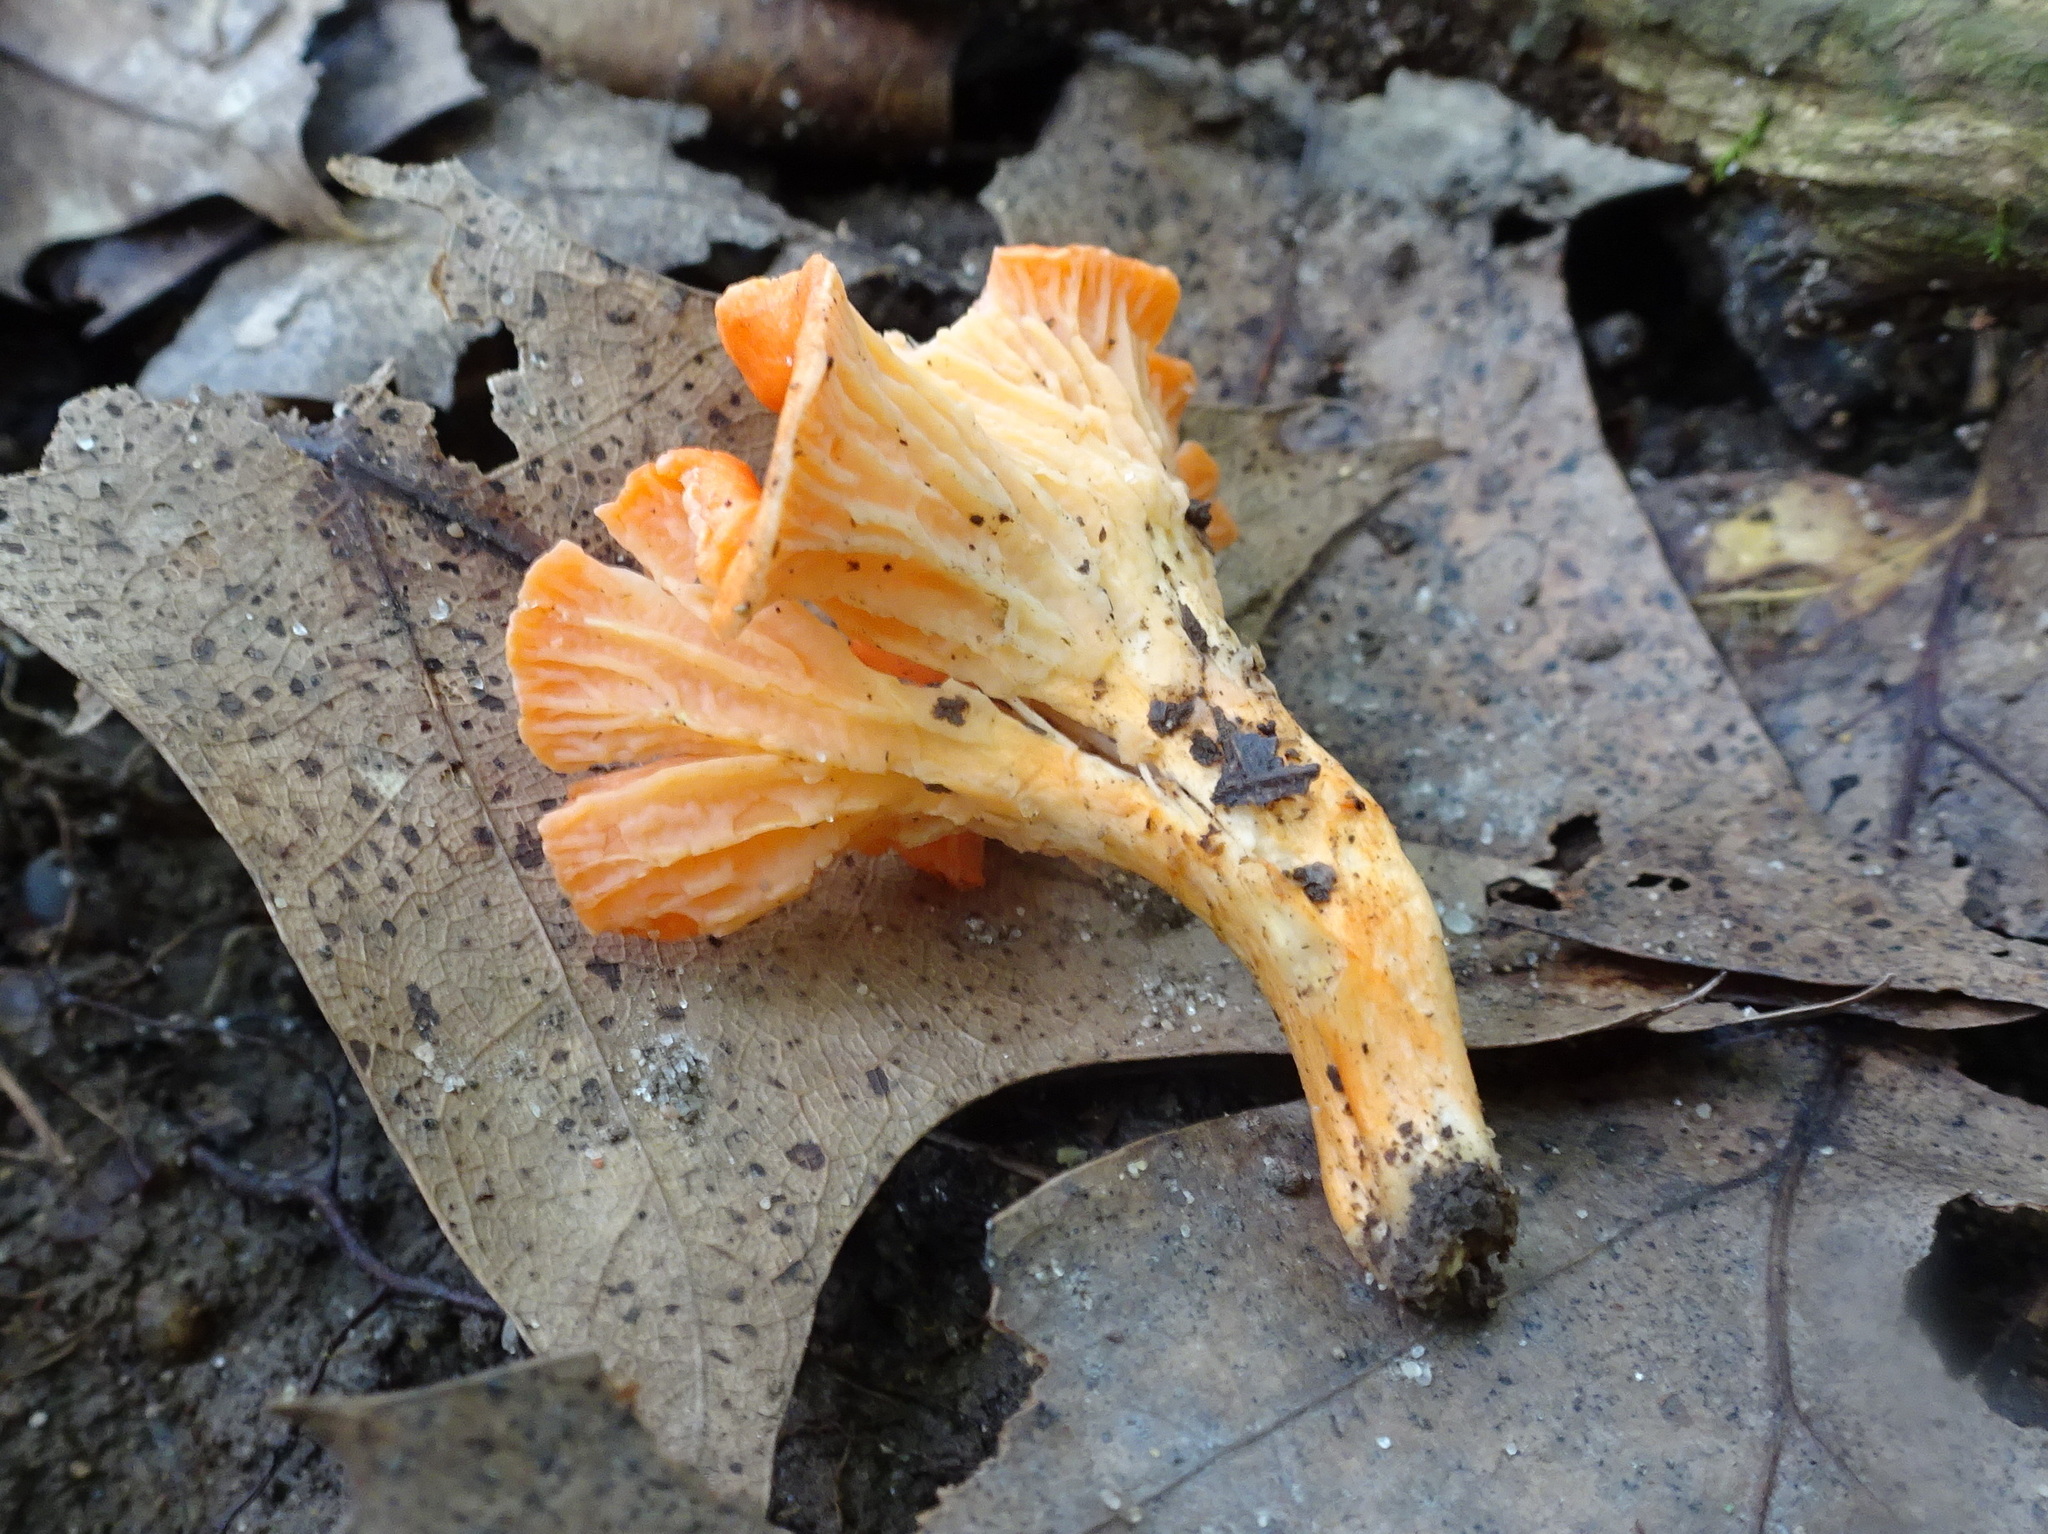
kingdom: Fungi
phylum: Basidiomycota
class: Agaricomycetes
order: Cantharellales
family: Hydnaceae
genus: Cantharellus
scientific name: Cantharellus cinnabarinus
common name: Cinnabar chanterelle
